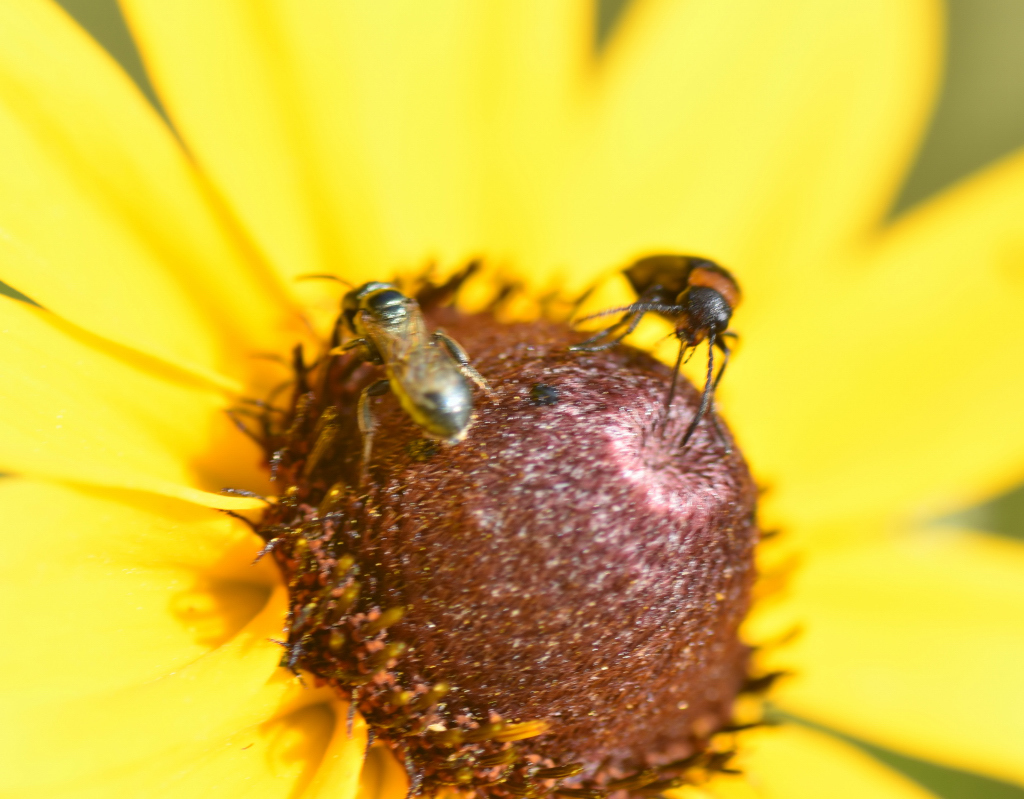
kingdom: Animalia
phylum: Arthropoda
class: Insecta
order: Coleoptera
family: Meloidae
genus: Nemognatha
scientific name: Nemognatha nemorensis
